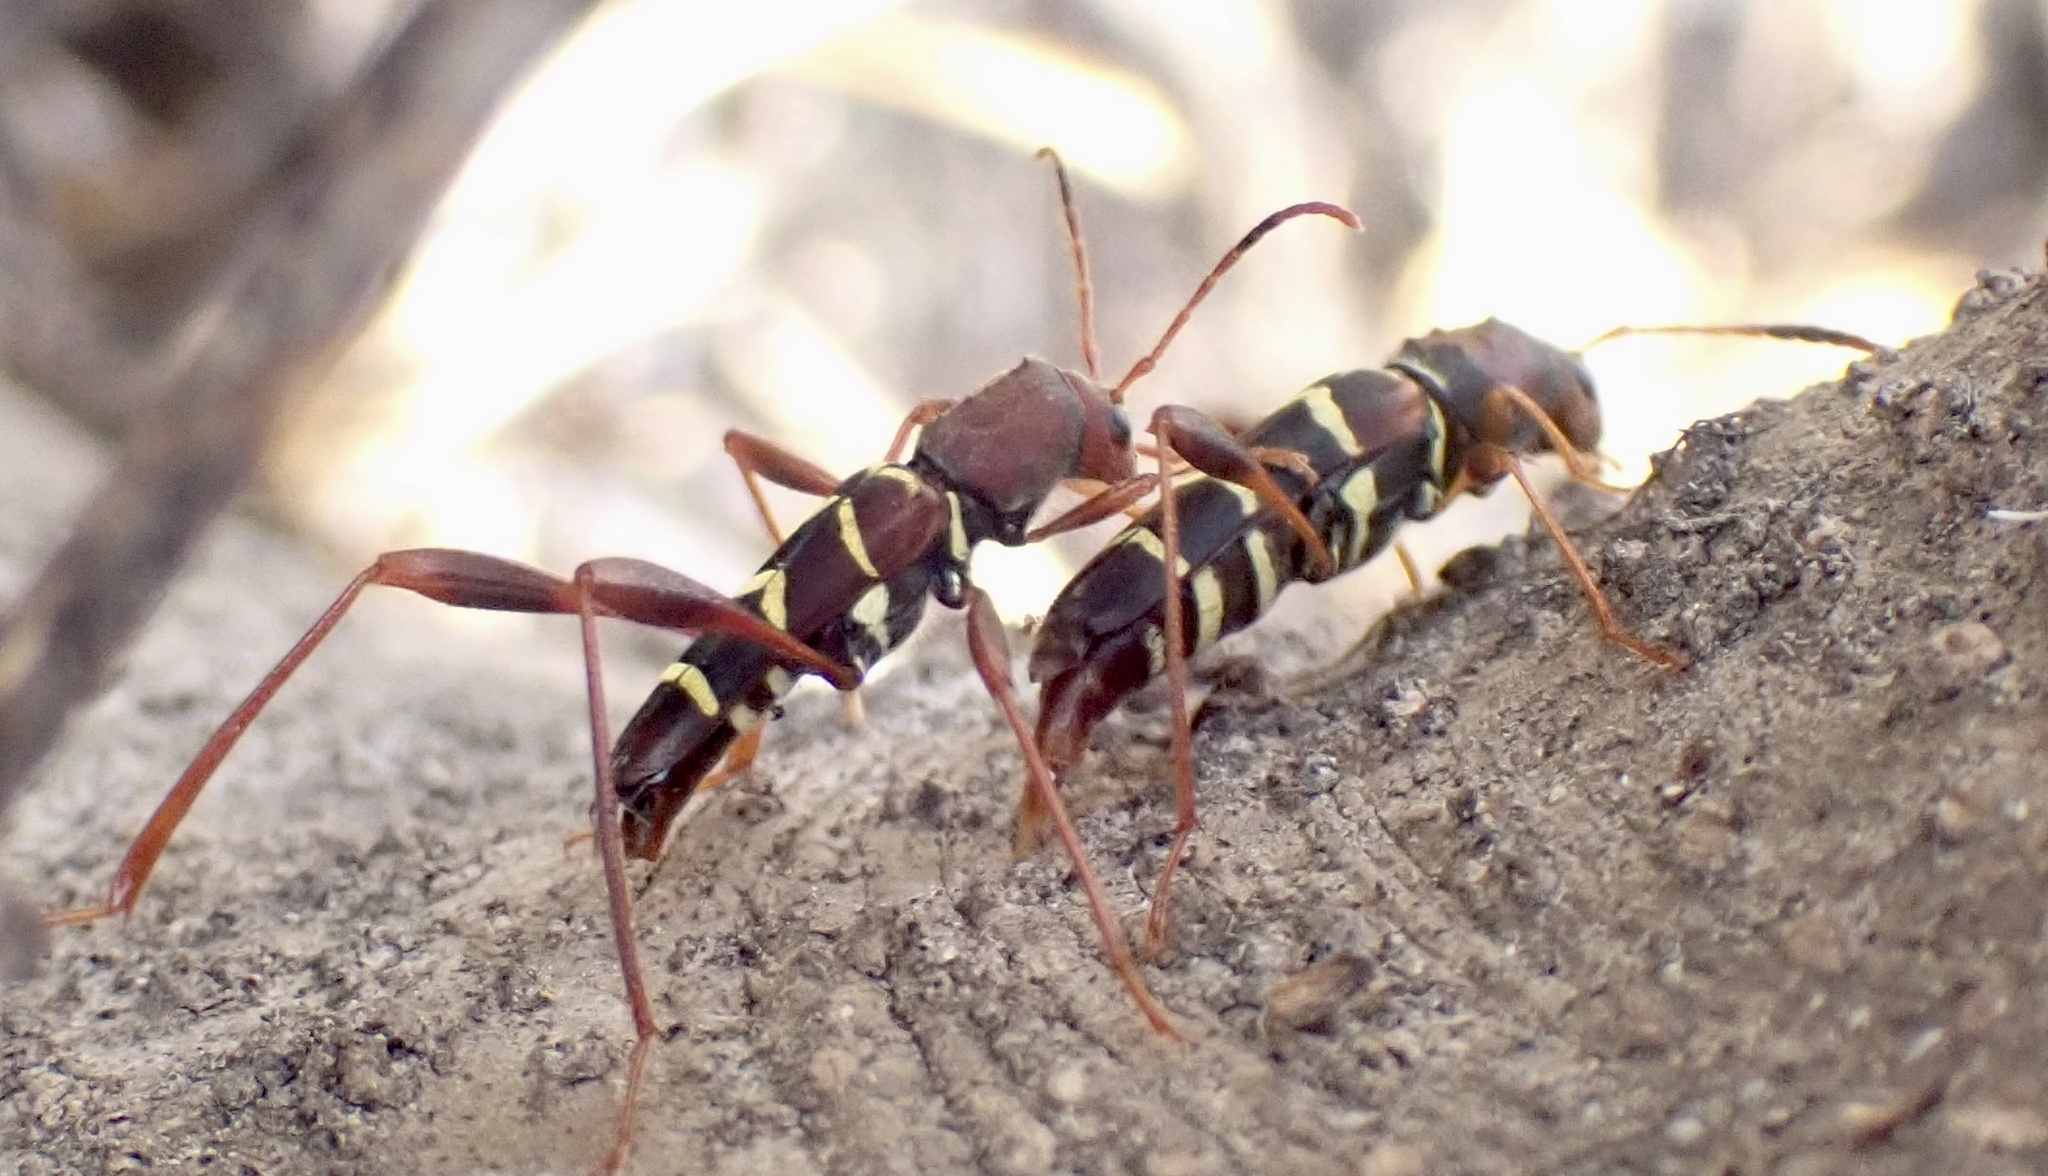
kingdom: Animalia
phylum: Arthropoda
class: Insecta
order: Coleoptera
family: Cerambycidae
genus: Neoclytus
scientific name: Neoclytus acuminatus
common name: Read-headed ash borer
